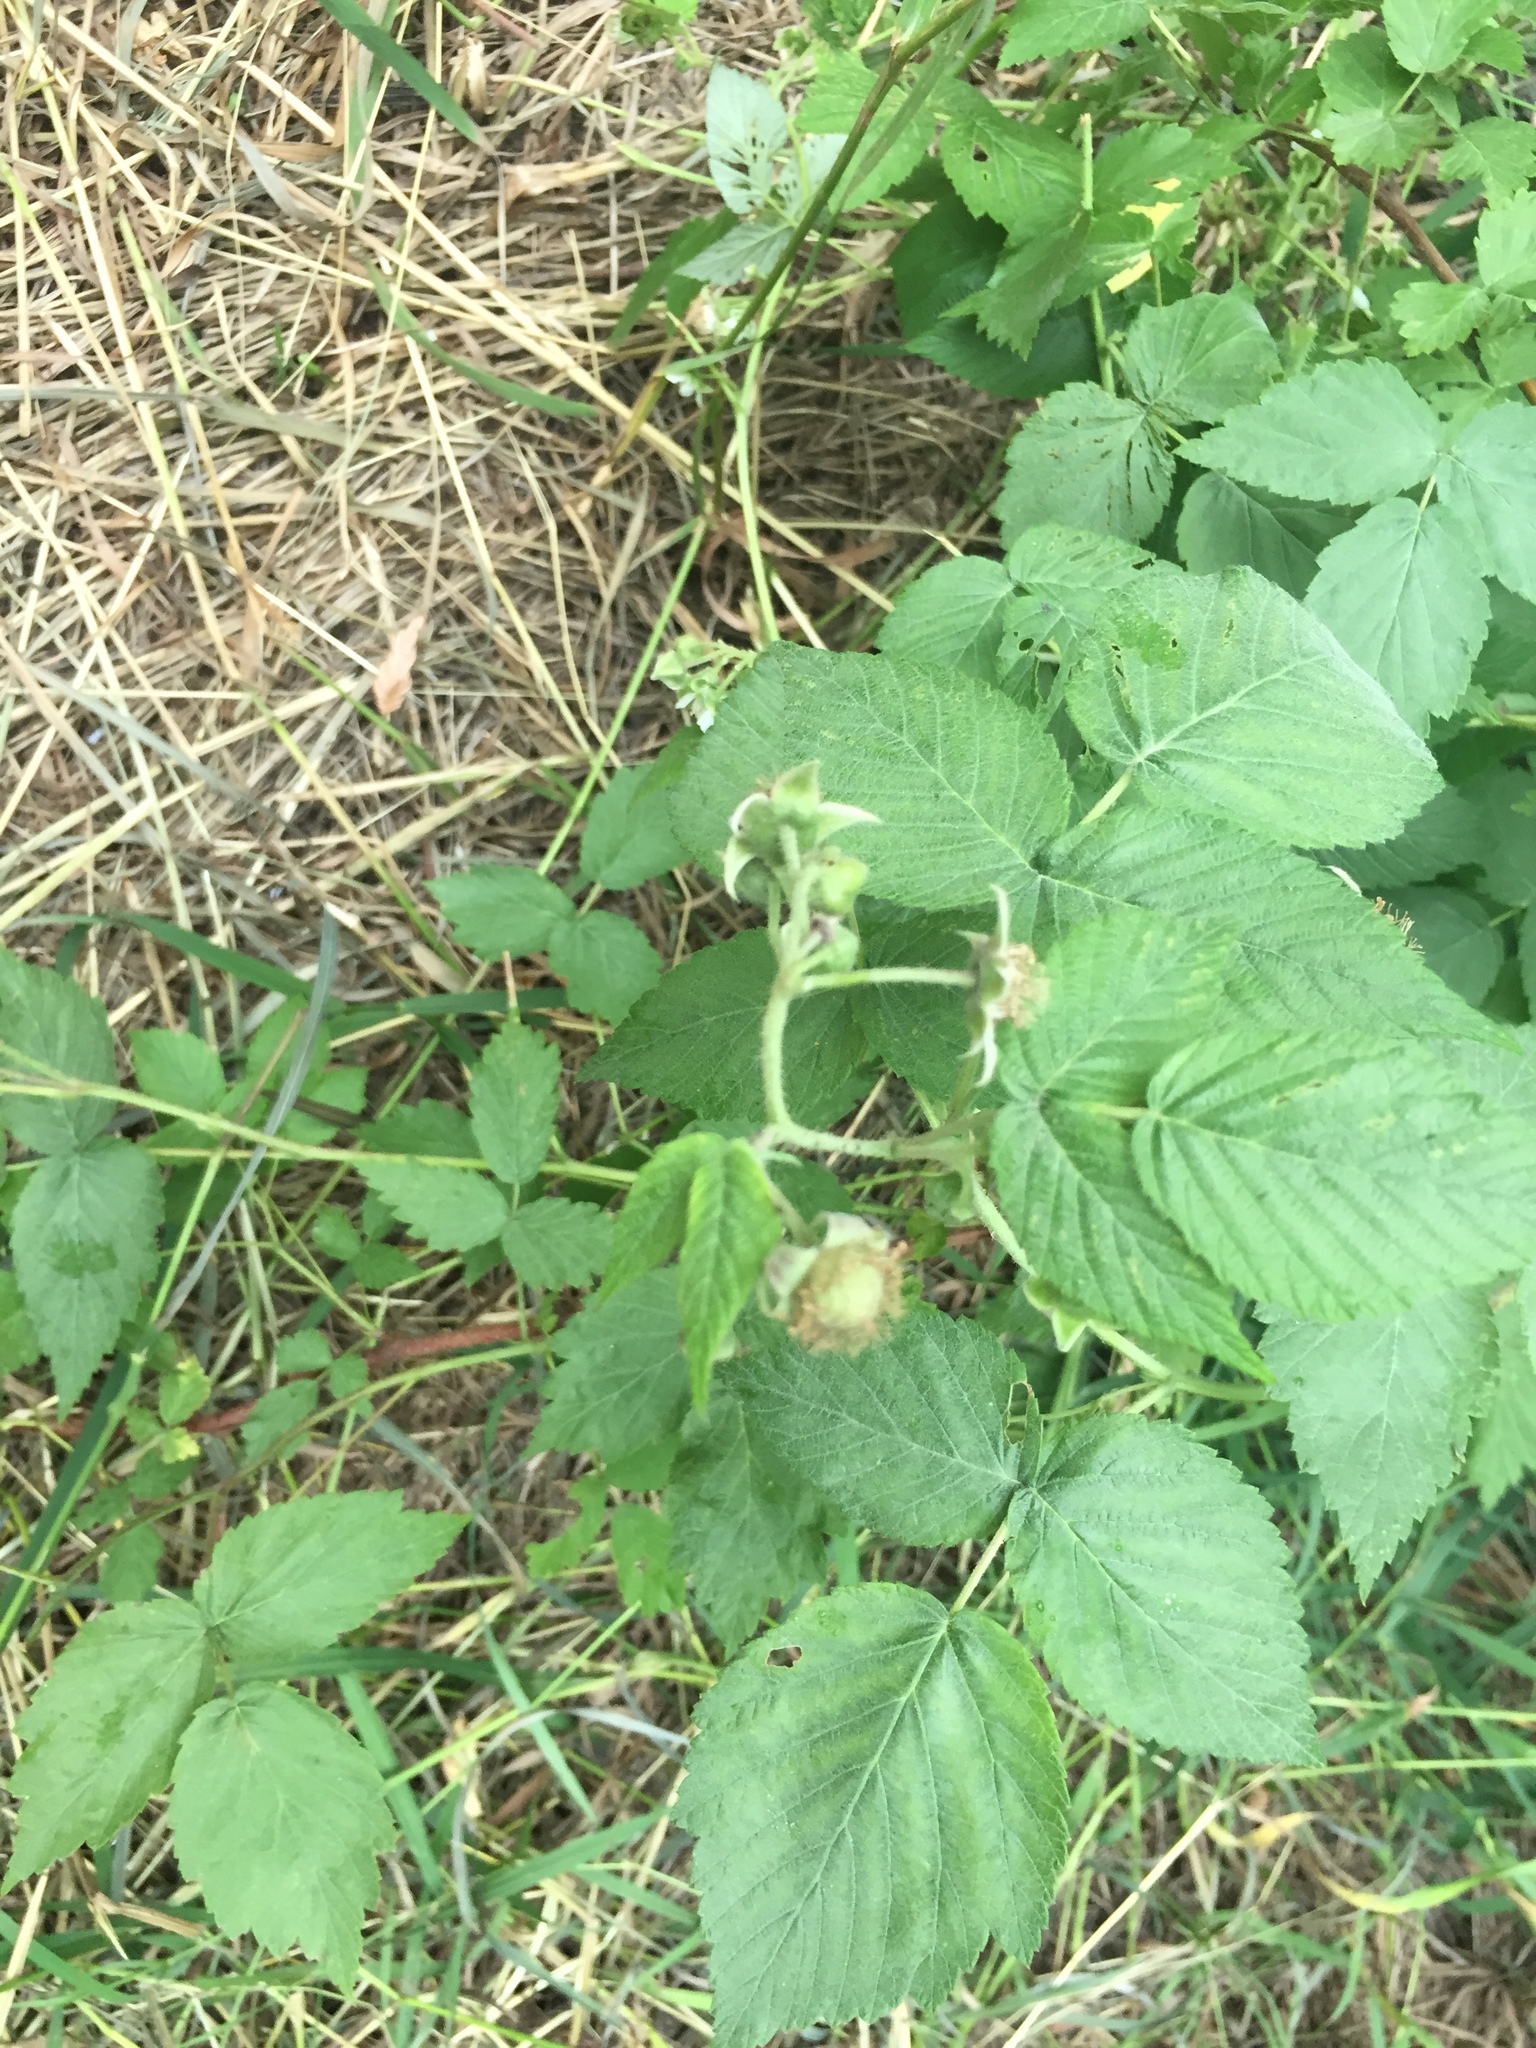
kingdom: Plantae
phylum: Tracheophyta
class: Magnoliopsida
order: Rosales
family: Rosaceae
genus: Rubus
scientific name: Rubus idaeus
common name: Raspberry
